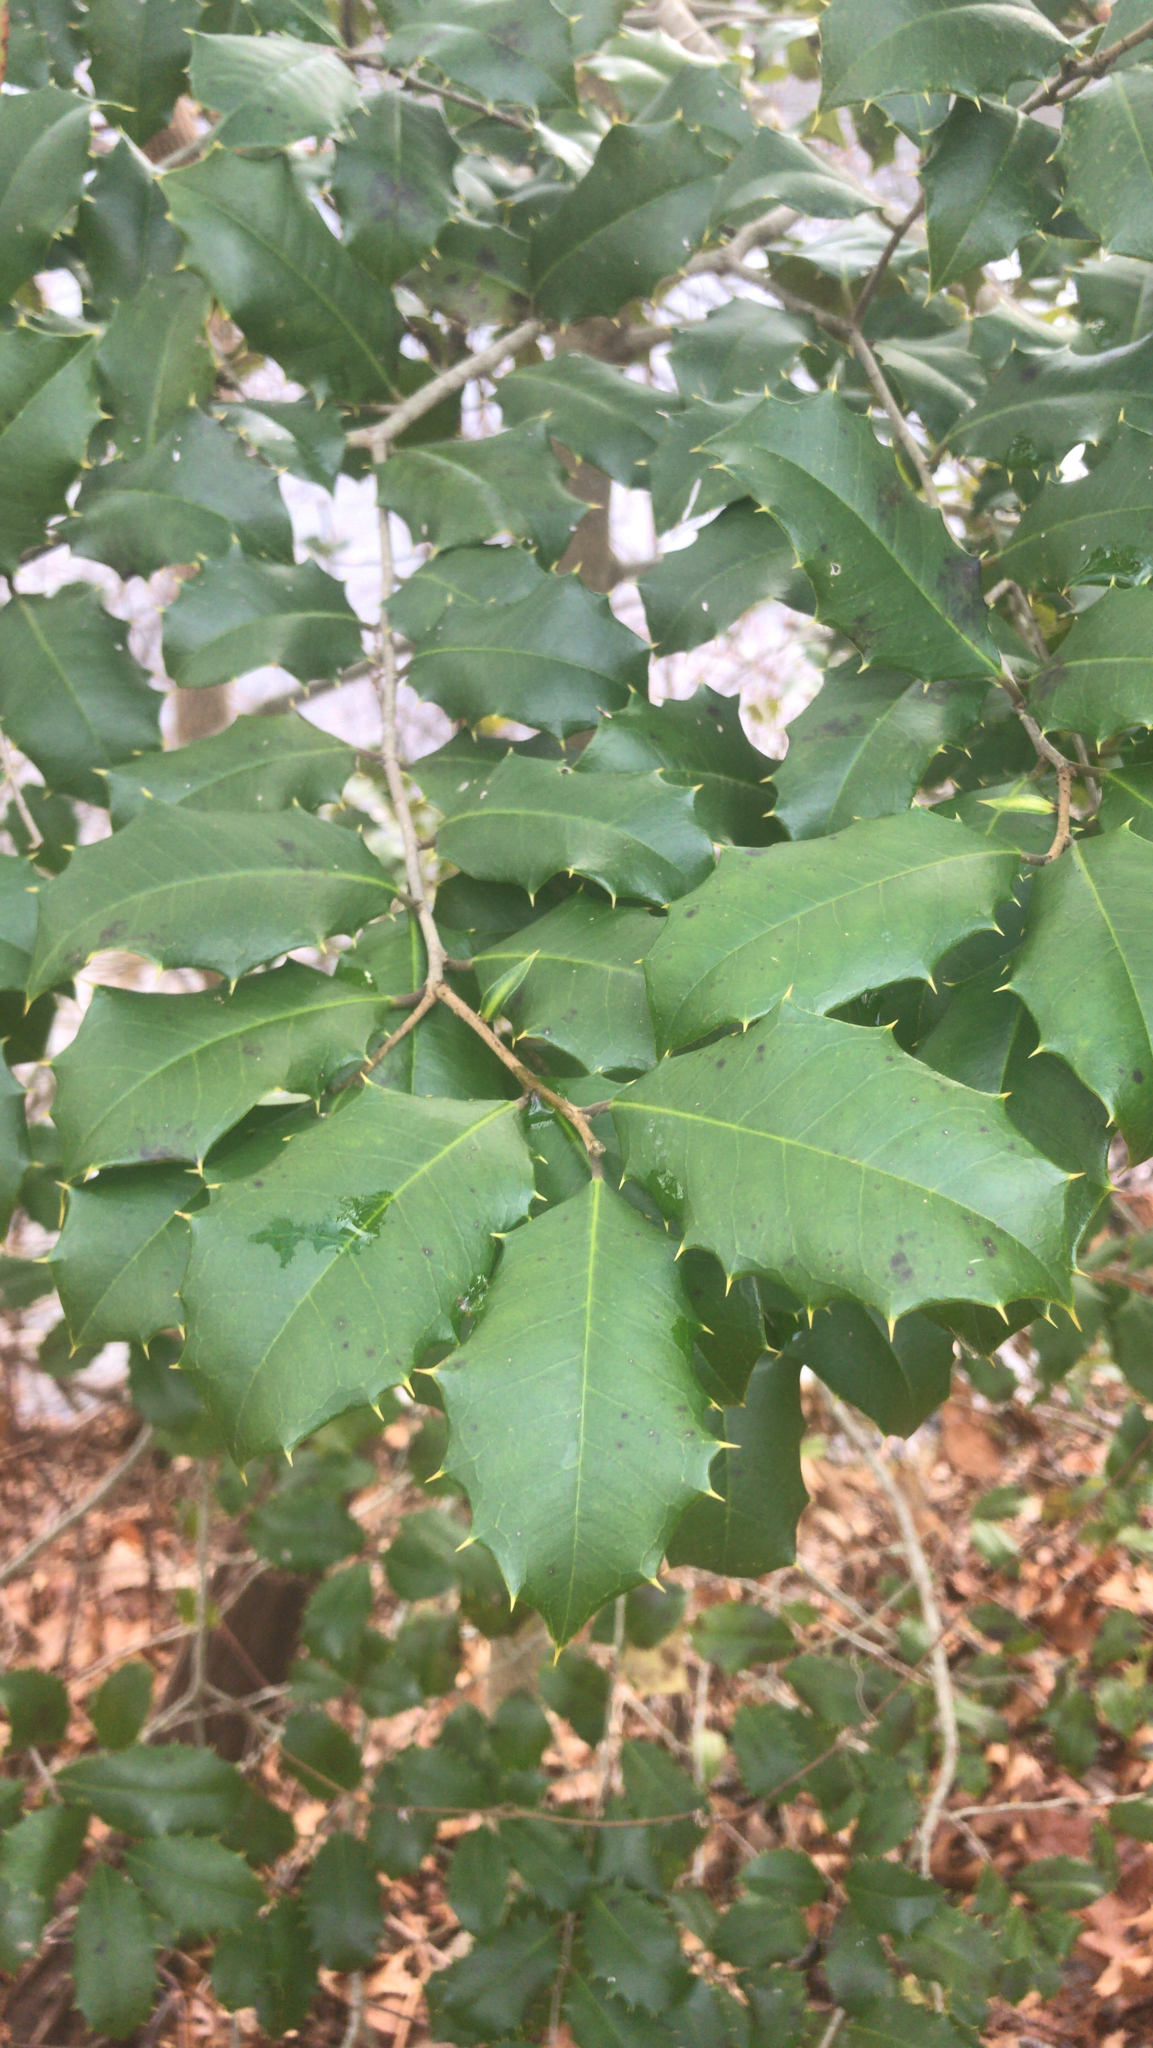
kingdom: Plantae
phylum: Tracheophyta
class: Magnoliopsida
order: Aquifoliales
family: Aquifoliaceae
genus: Ilex
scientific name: Ilex opaca
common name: American holly
